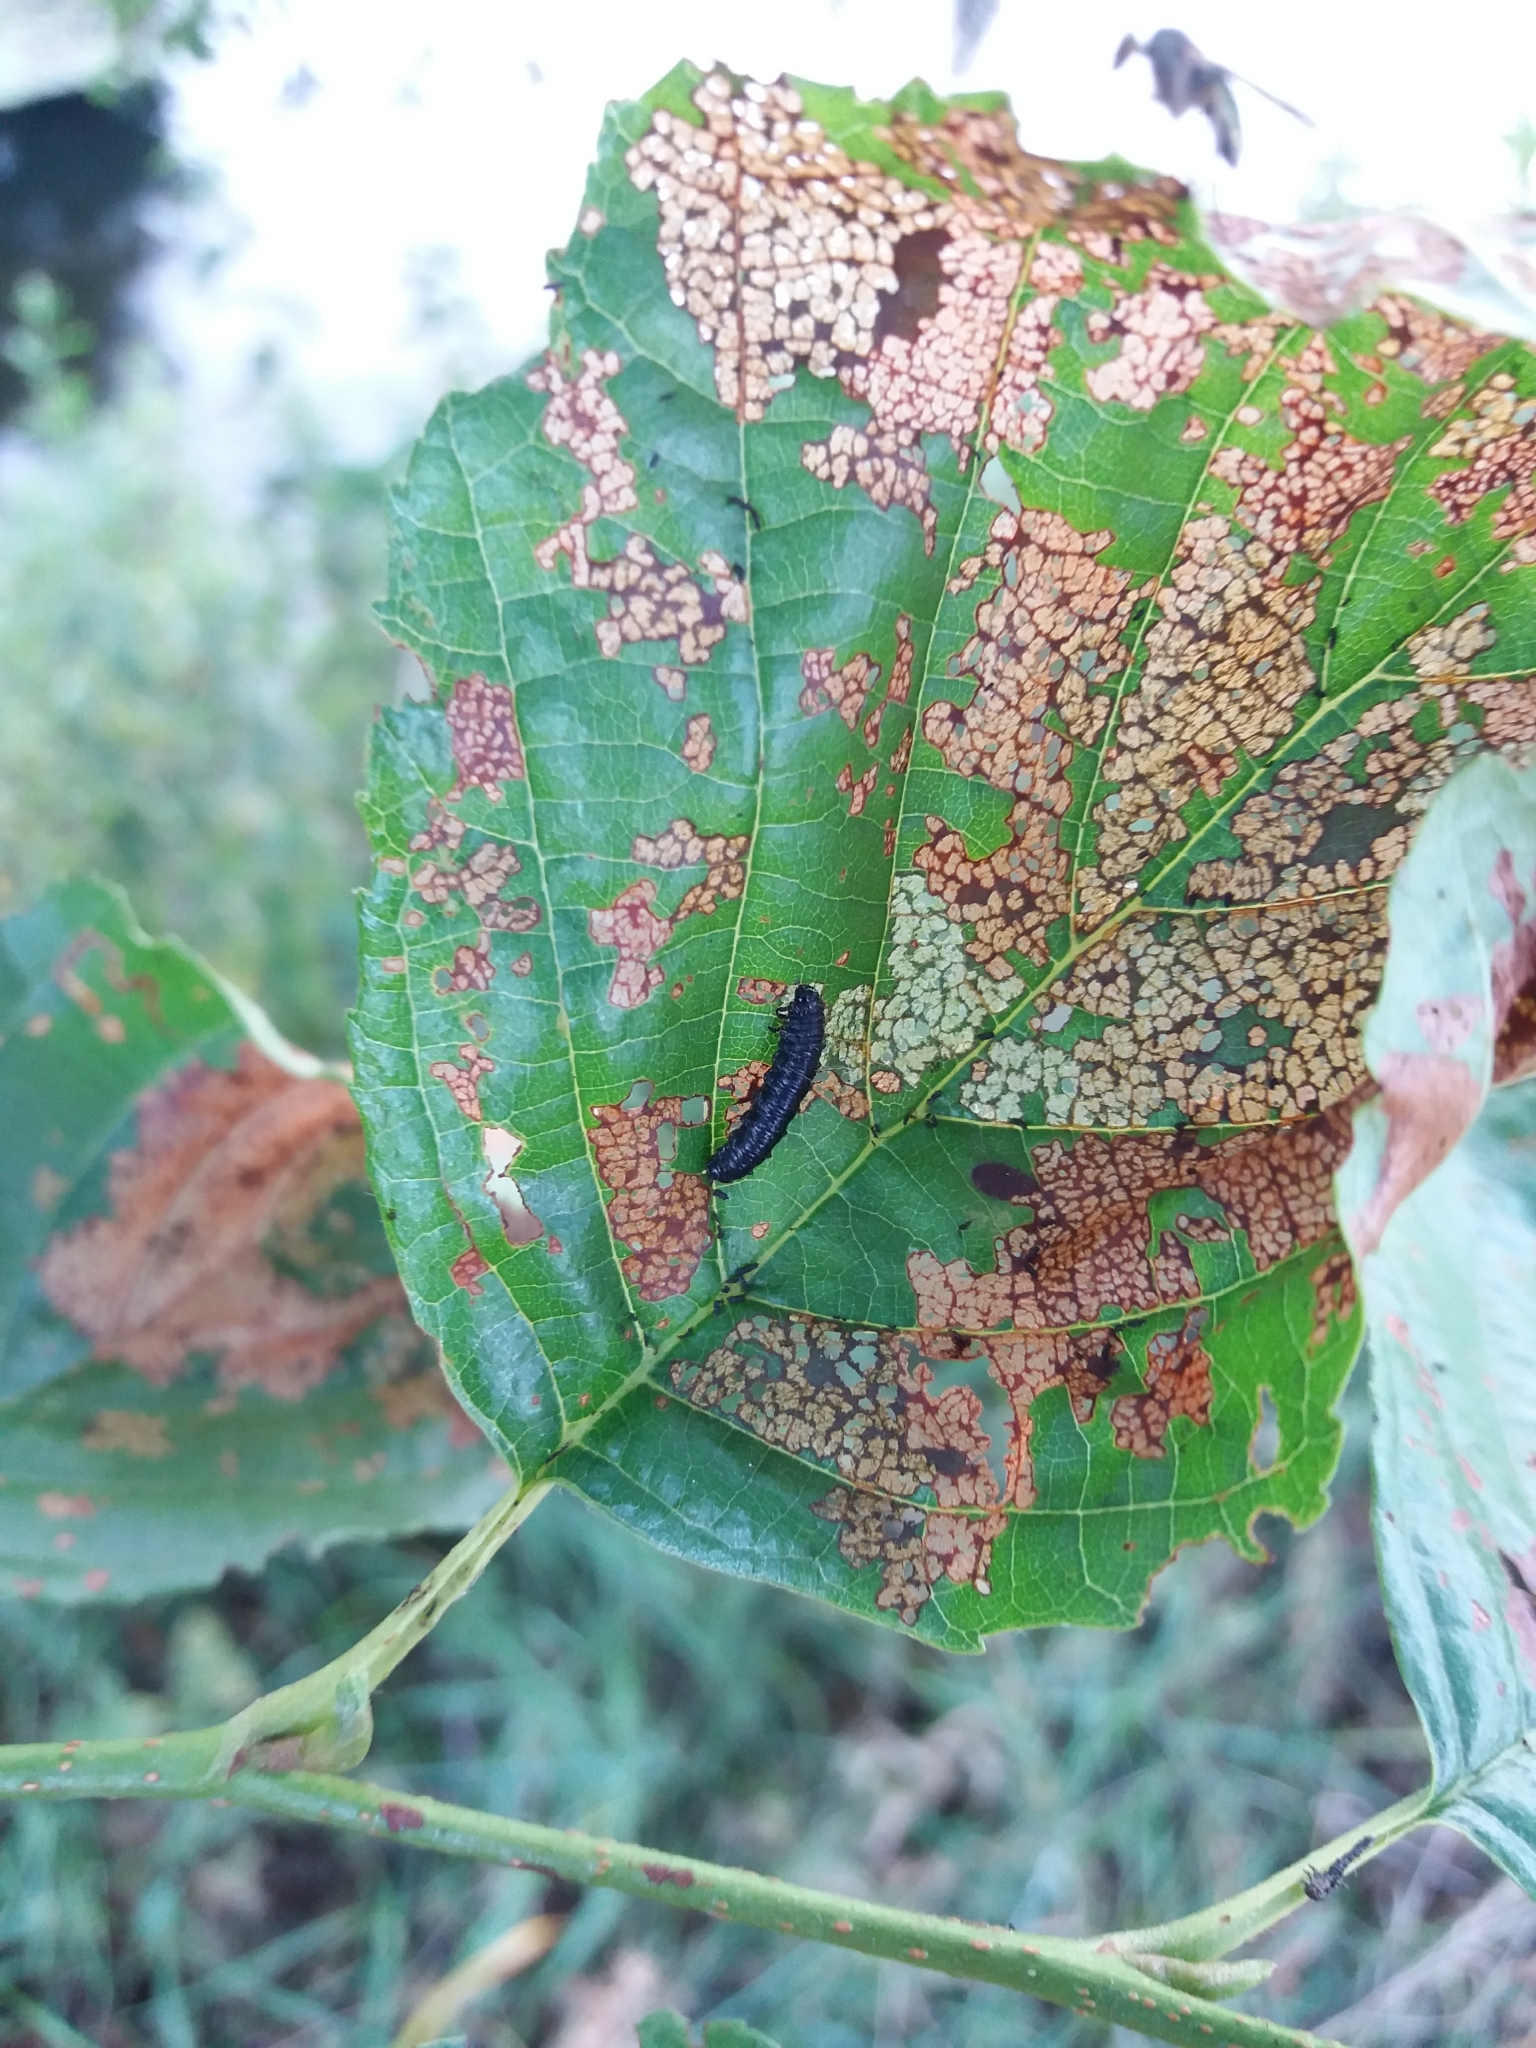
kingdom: Animalia
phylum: Arthropoda
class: Insecta
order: Coleoptera
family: Chrysomelidae
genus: Agelastica
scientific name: Agelastica alni
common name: Alder leaf beetle
